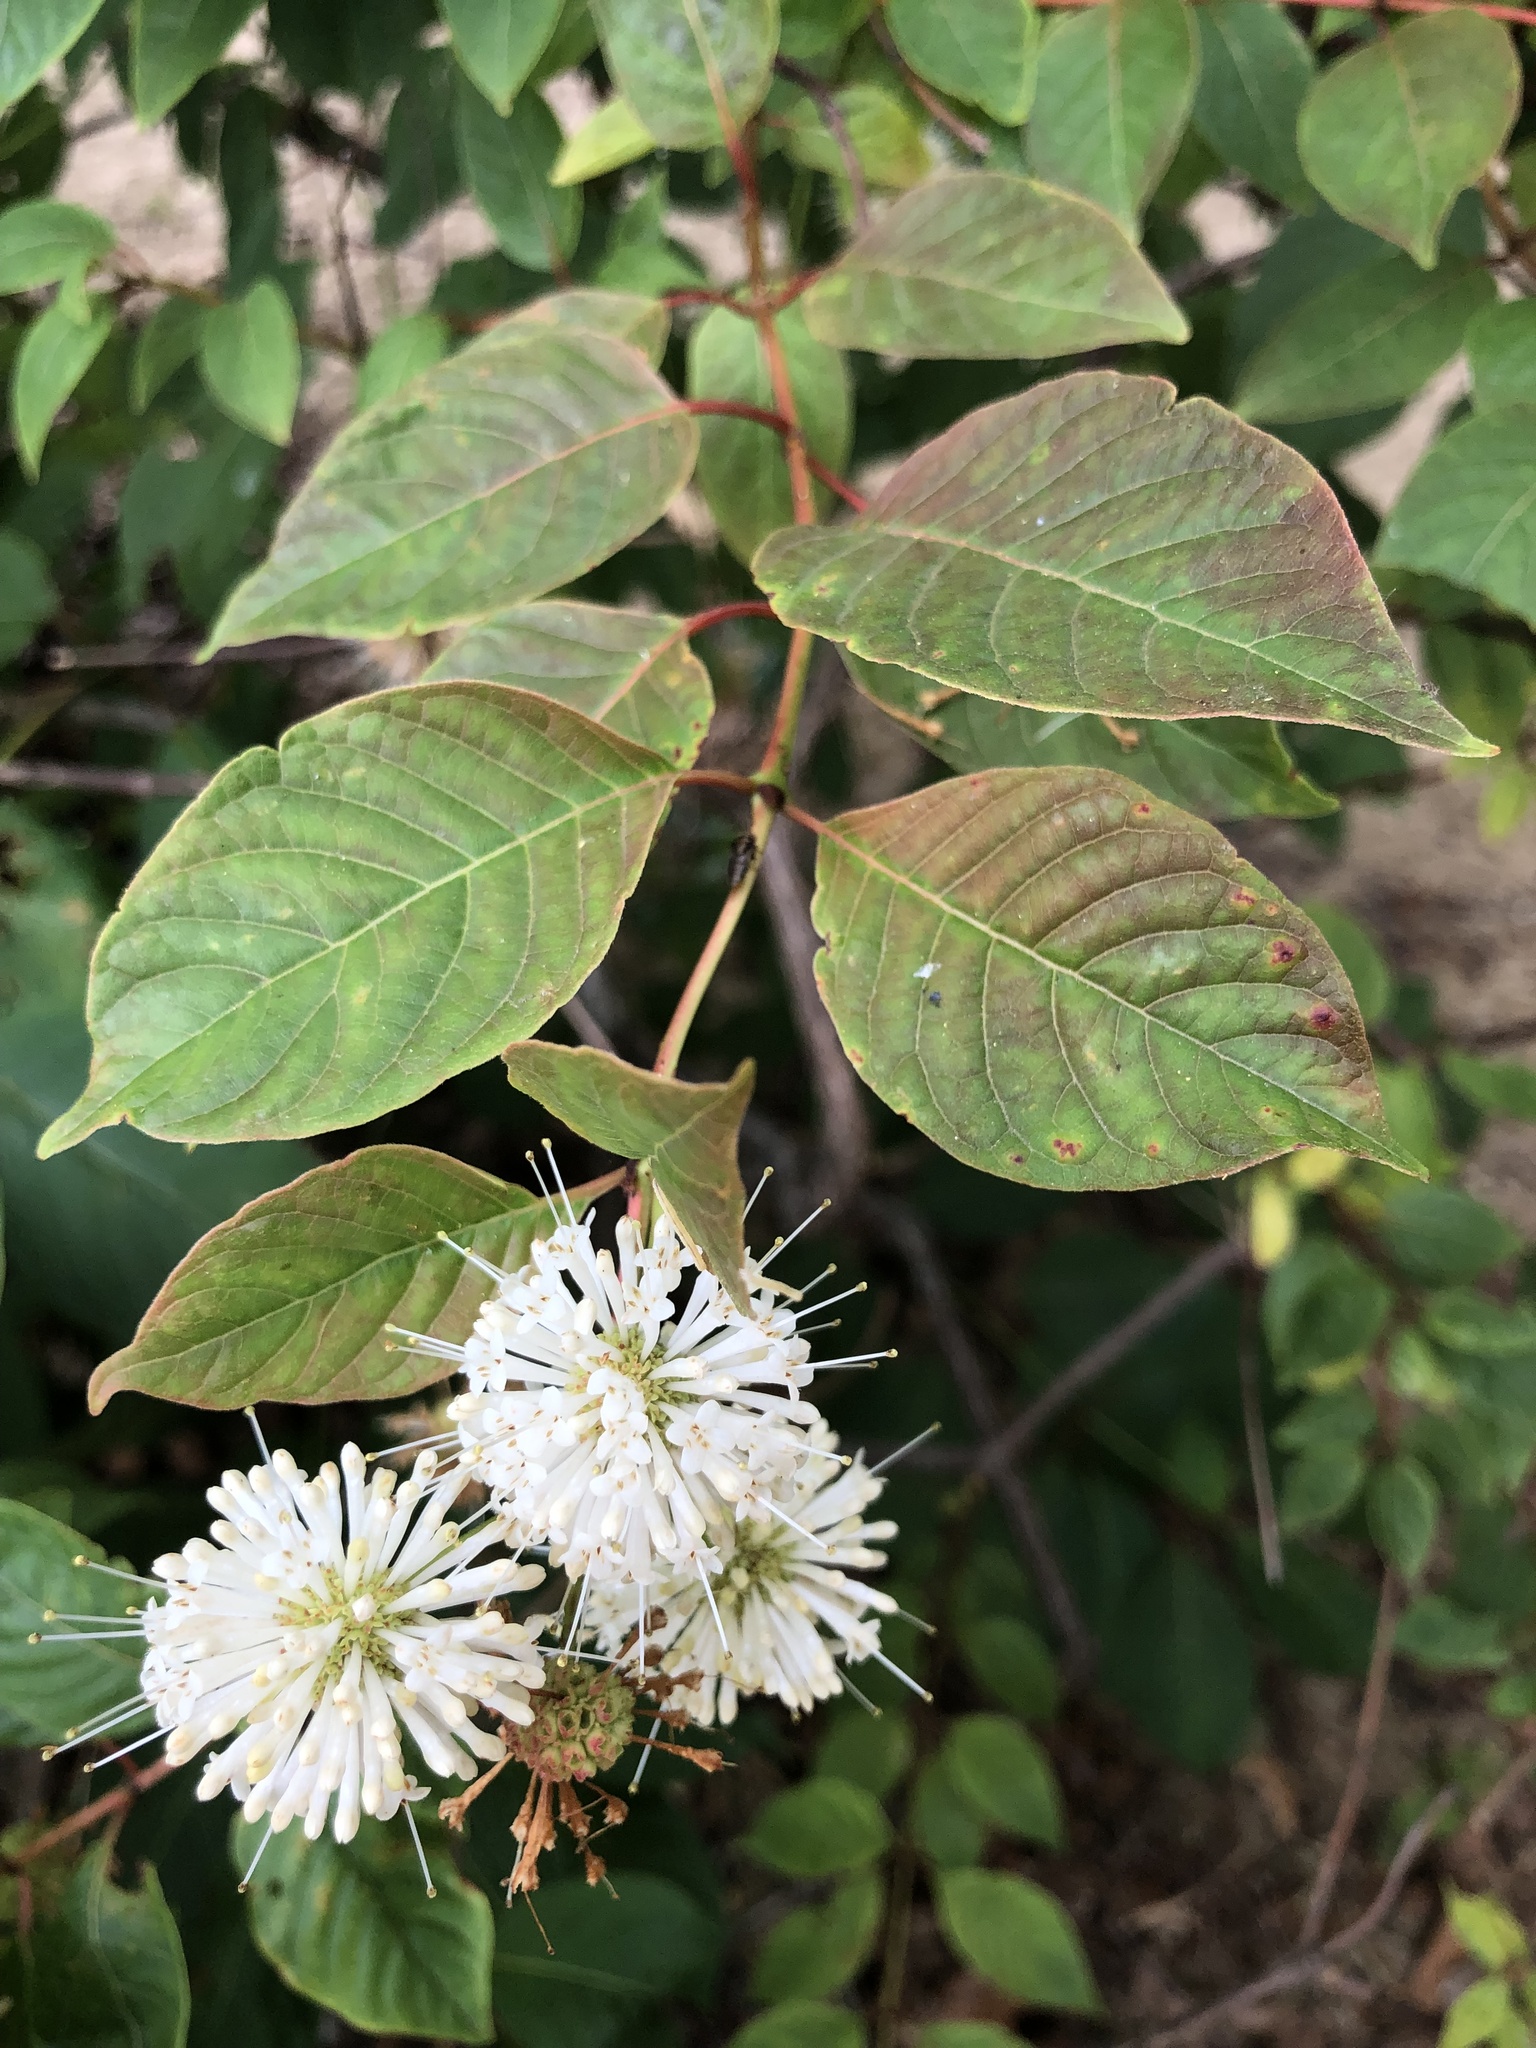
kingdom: Plantae
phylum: Tracheophyta
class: Magnoliopsida
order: Gentianales
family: Rubiaceae
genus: Cephalanthus
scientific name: Cephalanthus occidentalis
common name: Button-willow
